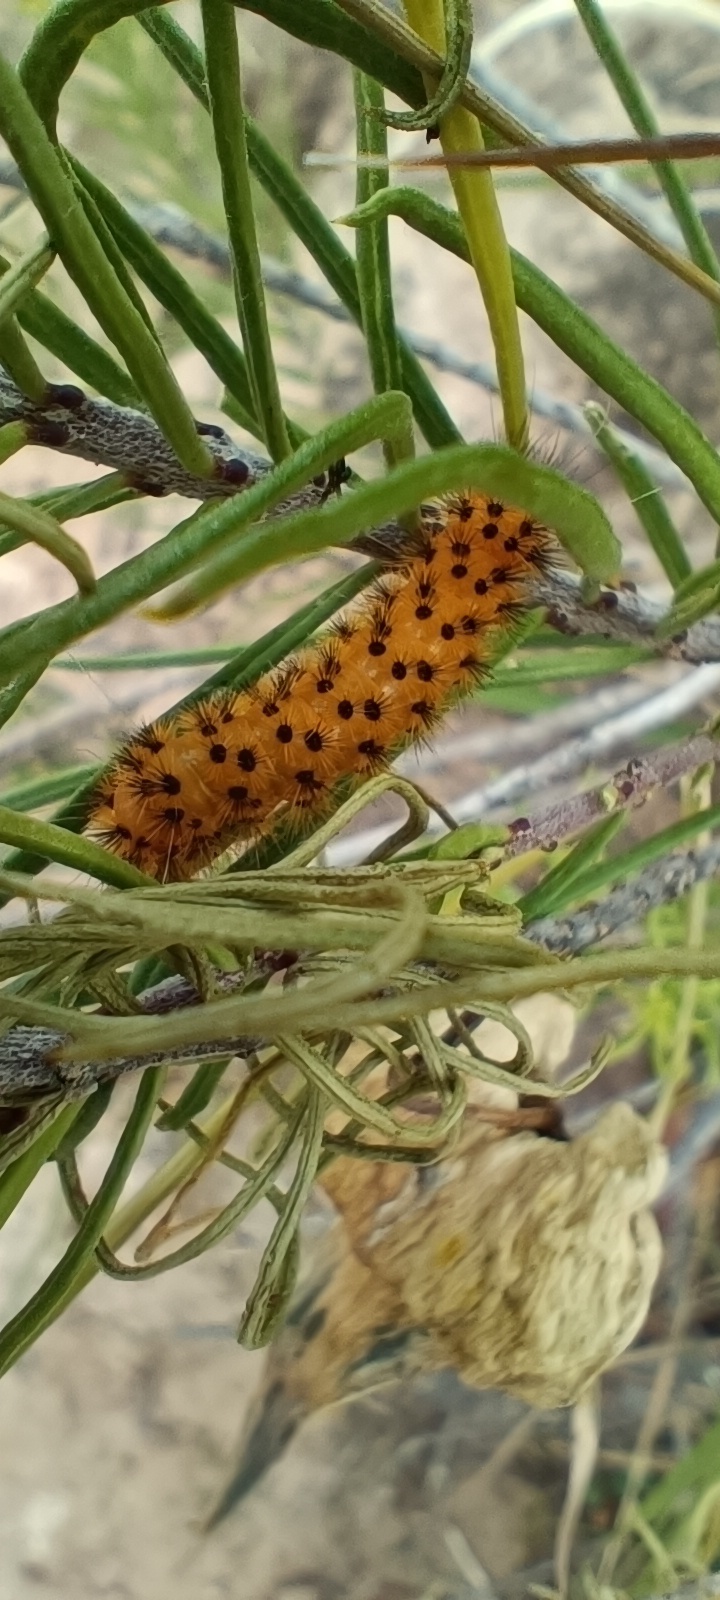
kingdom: Animalia
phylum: Arthropoda
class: Insecta
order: Lepidoptera
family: Erebidae
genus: Lerina
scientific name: Lerina incarnata
